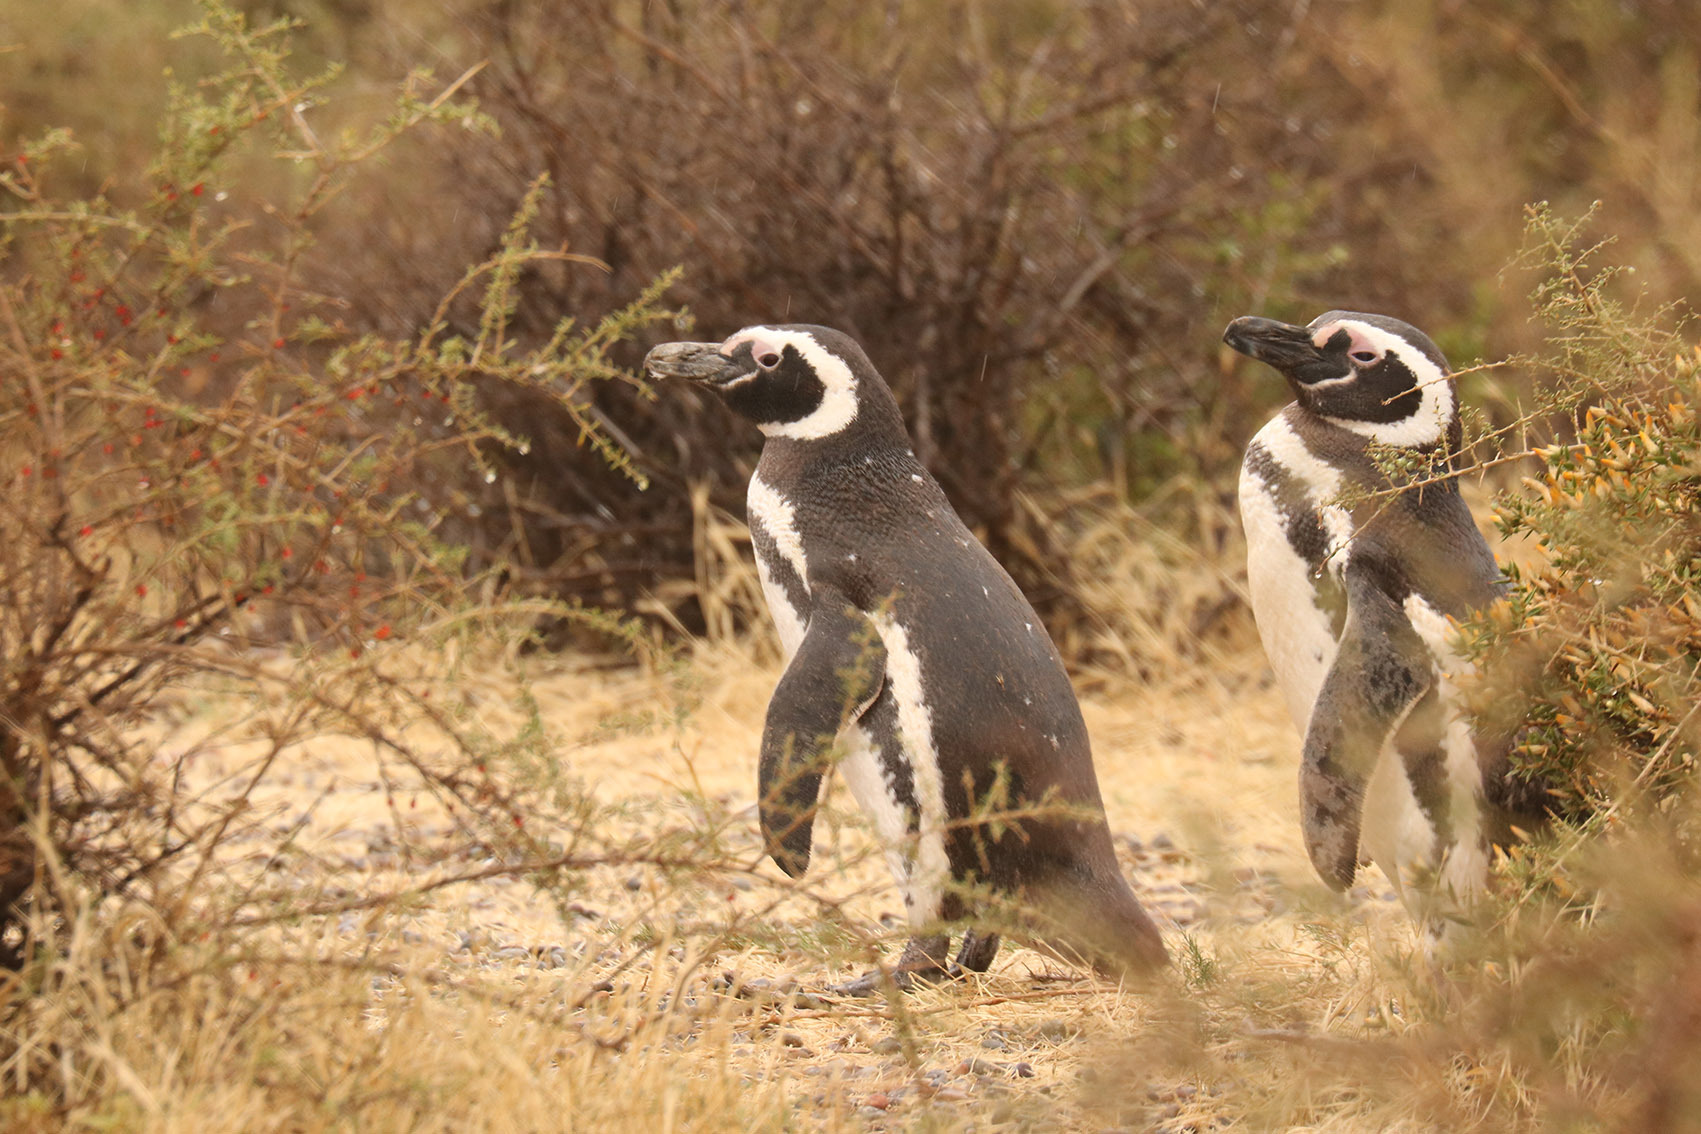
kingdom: Animalia
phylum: Chordata
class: Aves
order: Sphenisciformes
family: Spheniscidae
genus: Spheniscus
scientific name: Spheniscus magellanicus
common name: Magellanic penguin
